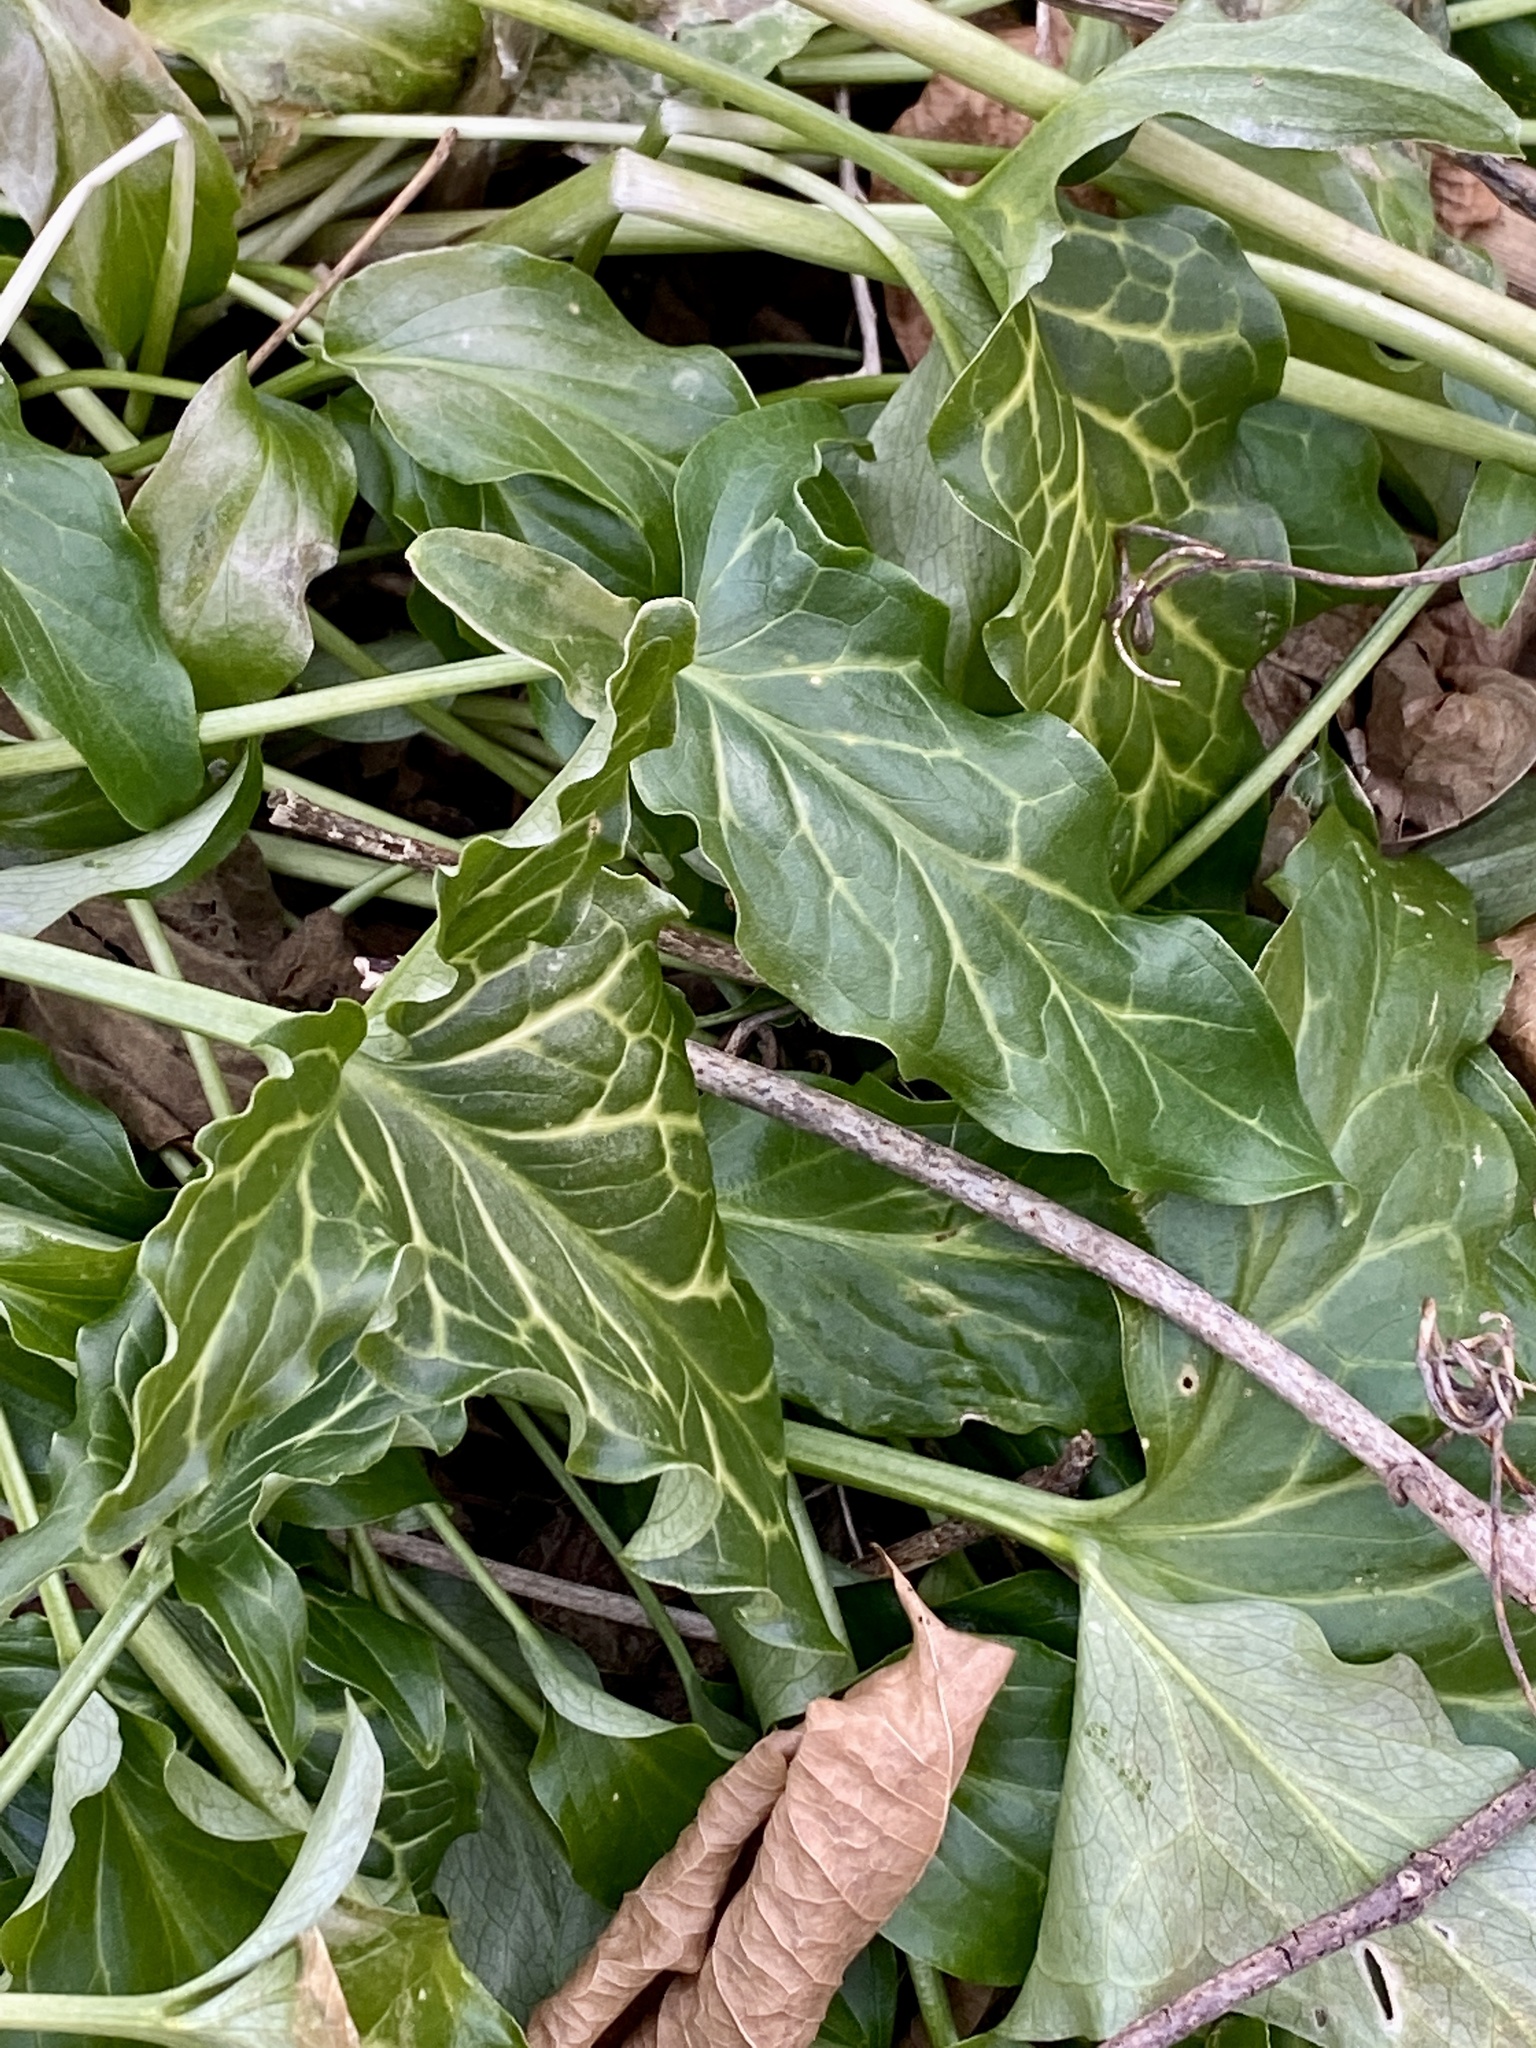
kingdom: Plantae
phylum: Tracheophyta
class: Liliopsida
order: Alismatales
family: Araceae
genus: Arum
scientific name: Arum italicum
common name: Italian lords-and-ladies
